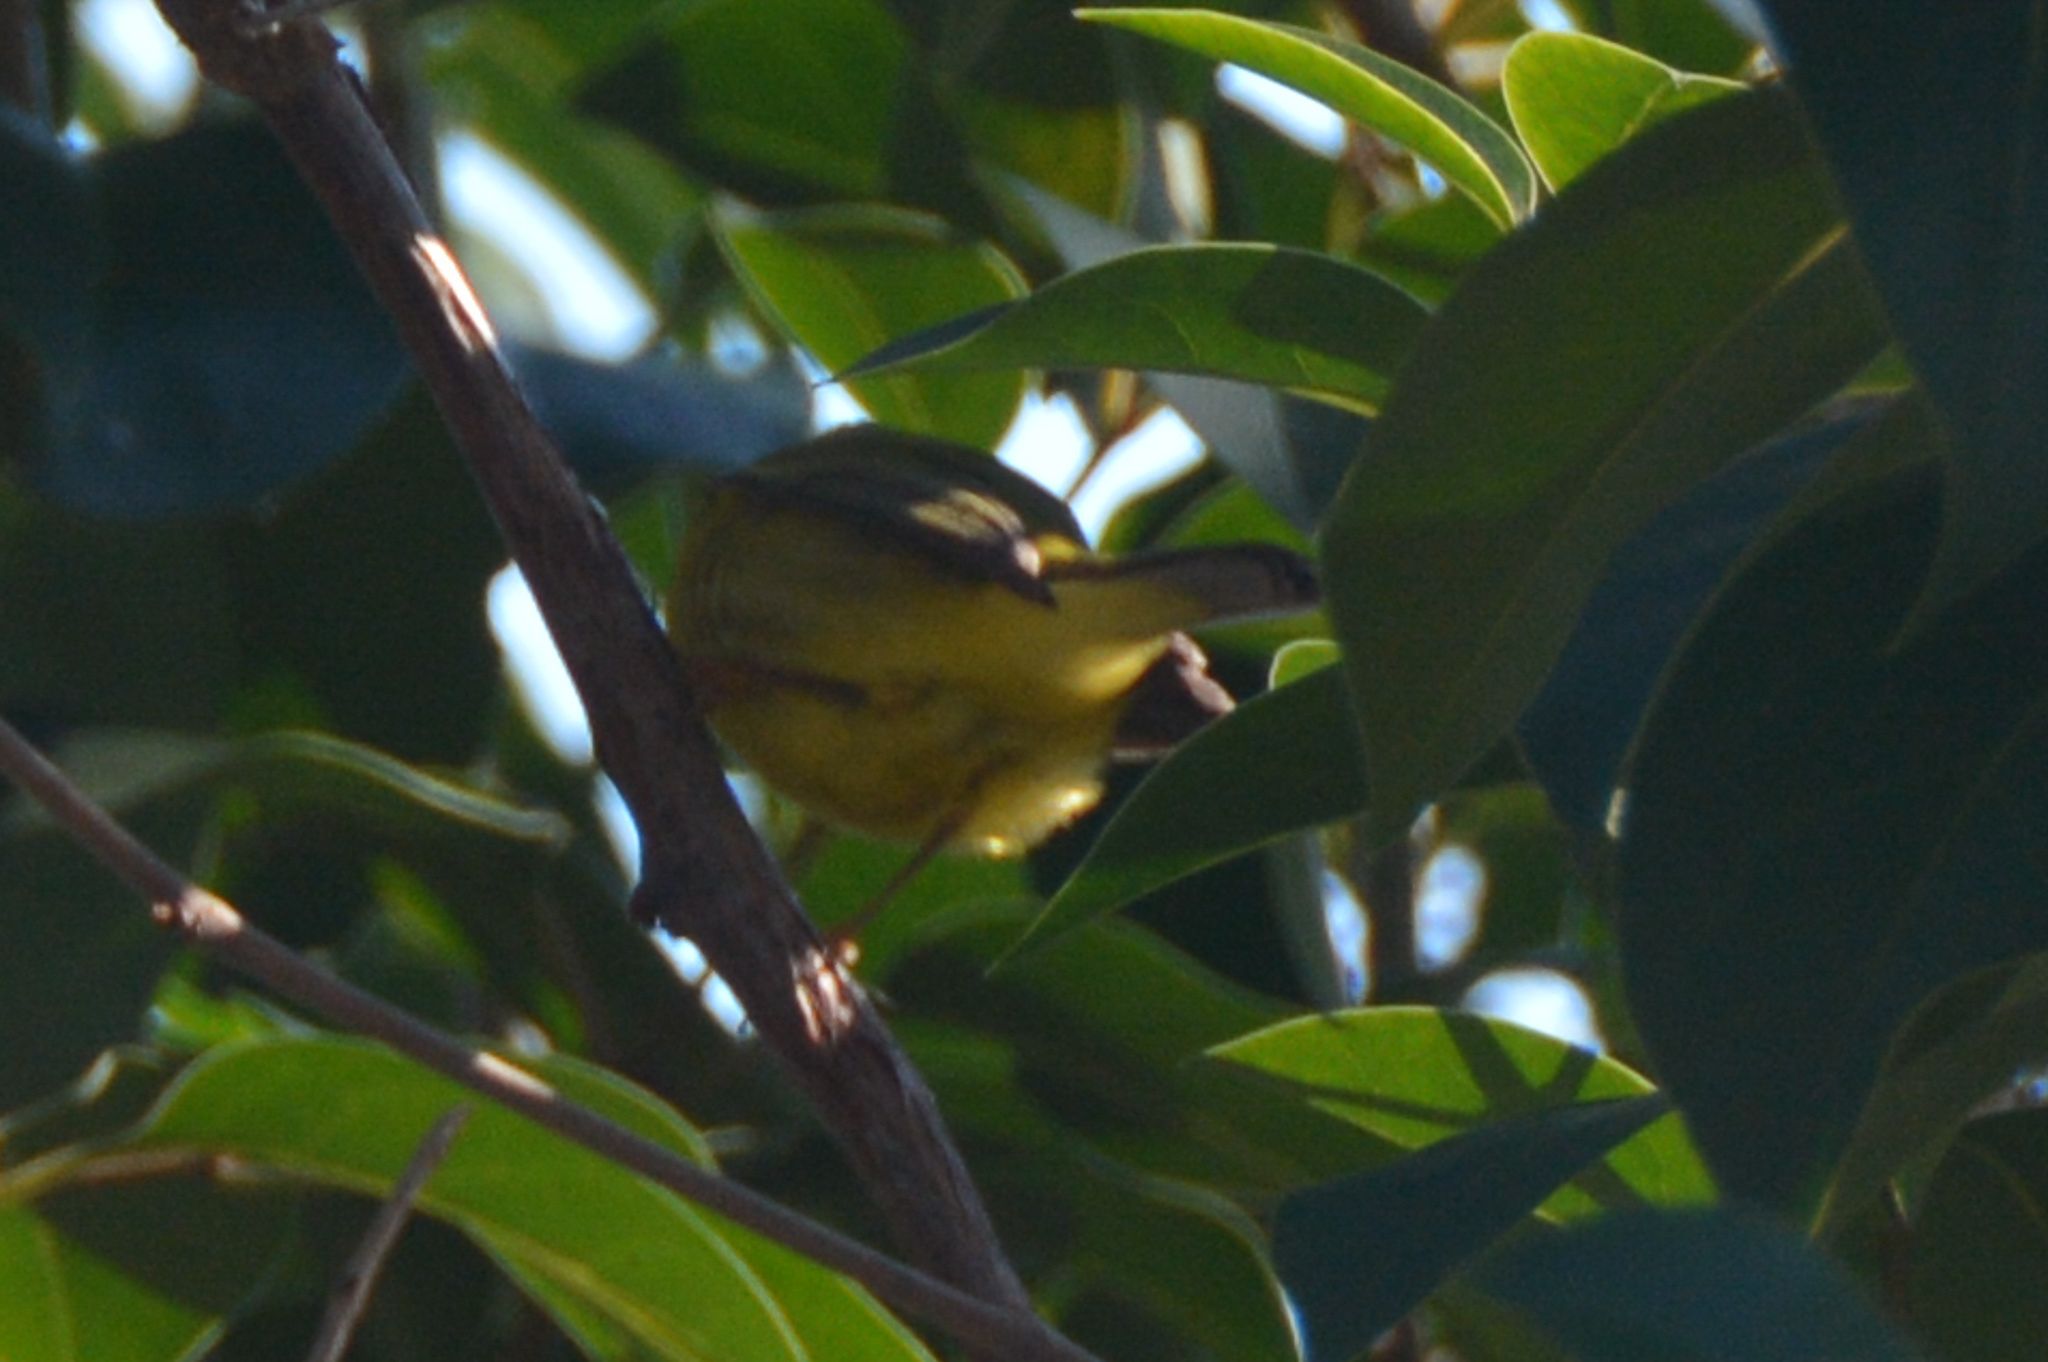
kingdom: Animalia
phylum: Chordata
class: Aves
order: Passeriformes
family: Parulidae
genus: Cardellina
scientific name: Cardellina pusilla
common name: Wilson's warbler
